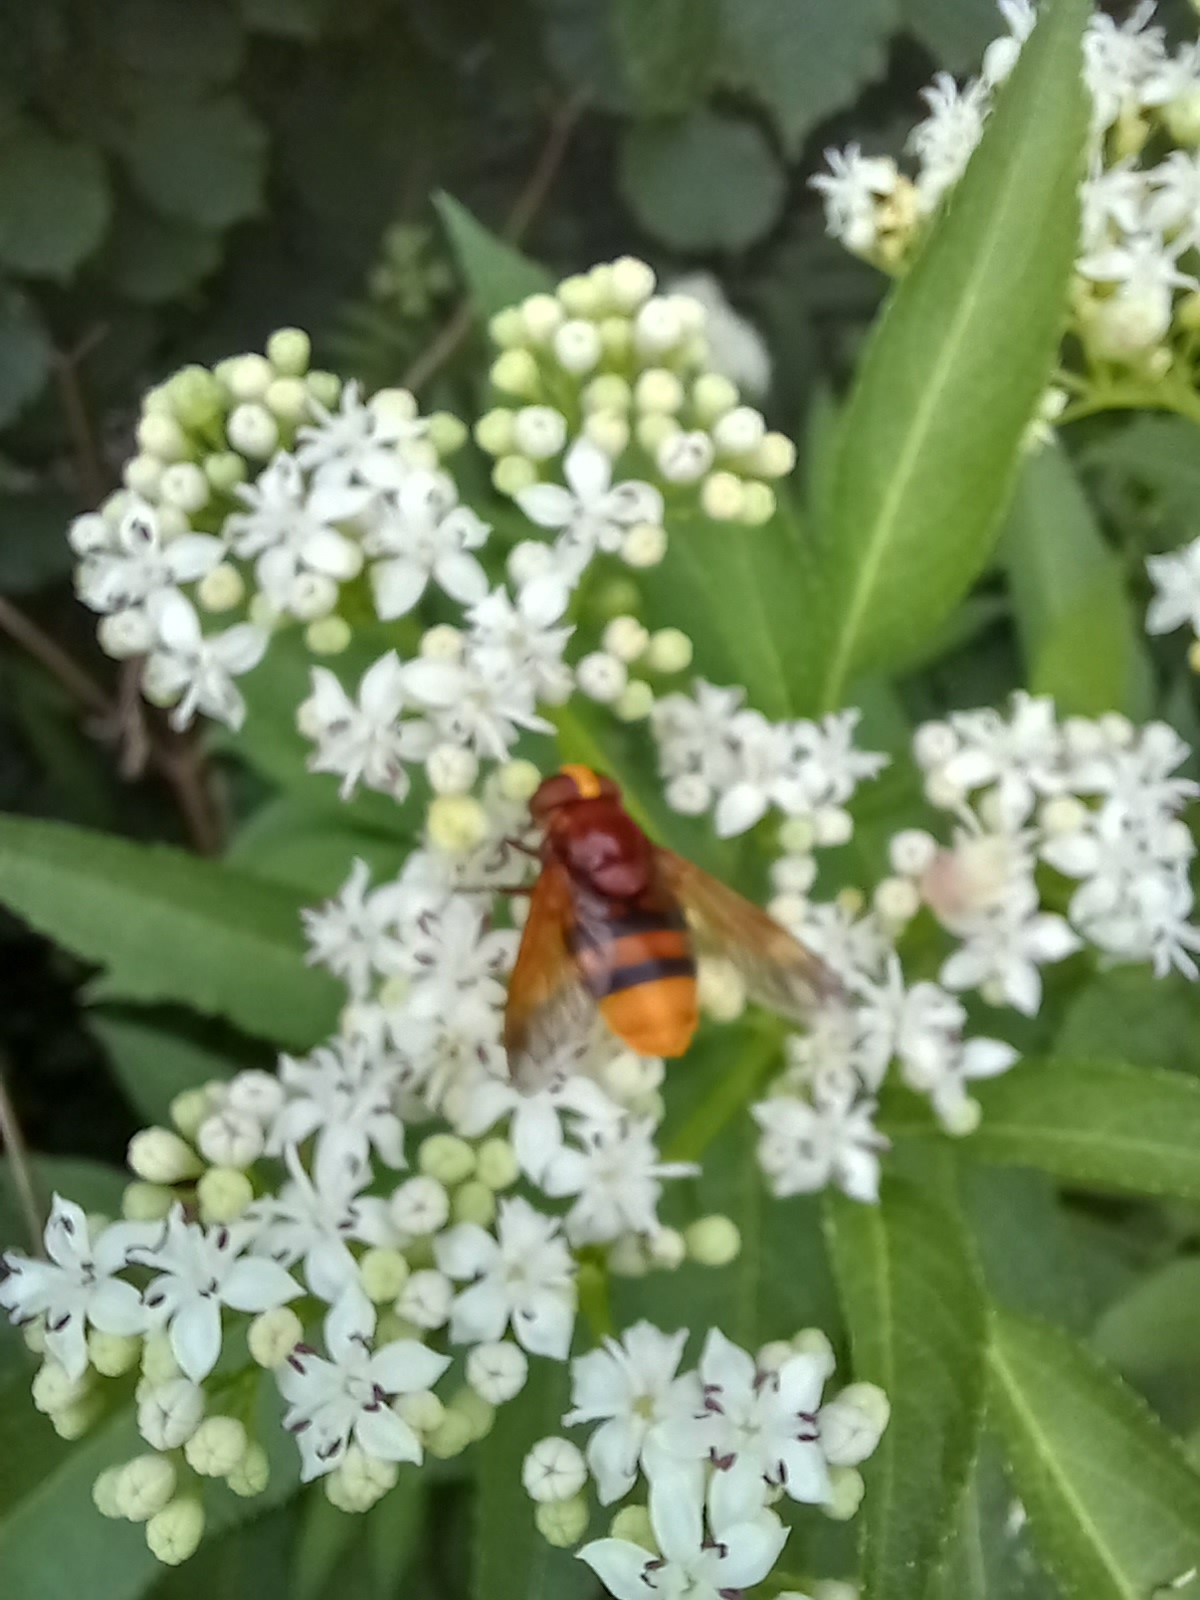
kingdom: Animalia
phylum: Arthropoda
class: Insecta
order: Diptera
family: Syrphidae
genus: Volucella
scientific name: Volucella zonaria
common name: Hornet hoverfly
